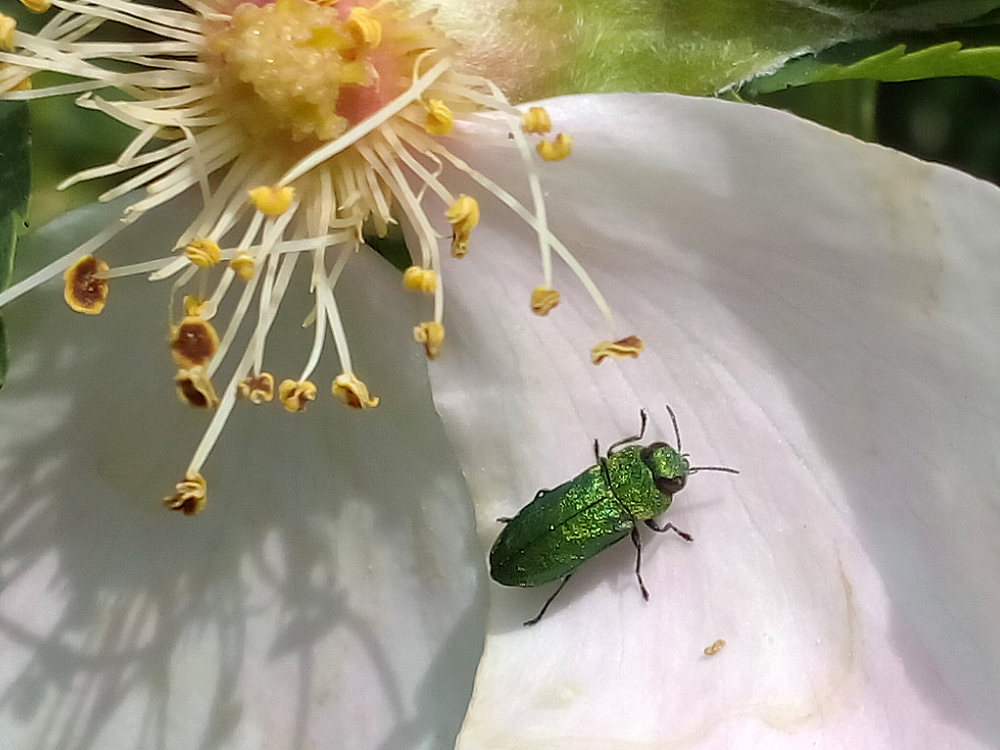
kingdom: Animalia
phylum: Arthropoda
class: Insecta
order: Coleoptera
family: Buprestidae
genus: Anthaxia
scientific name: Anthaxia nitidula
